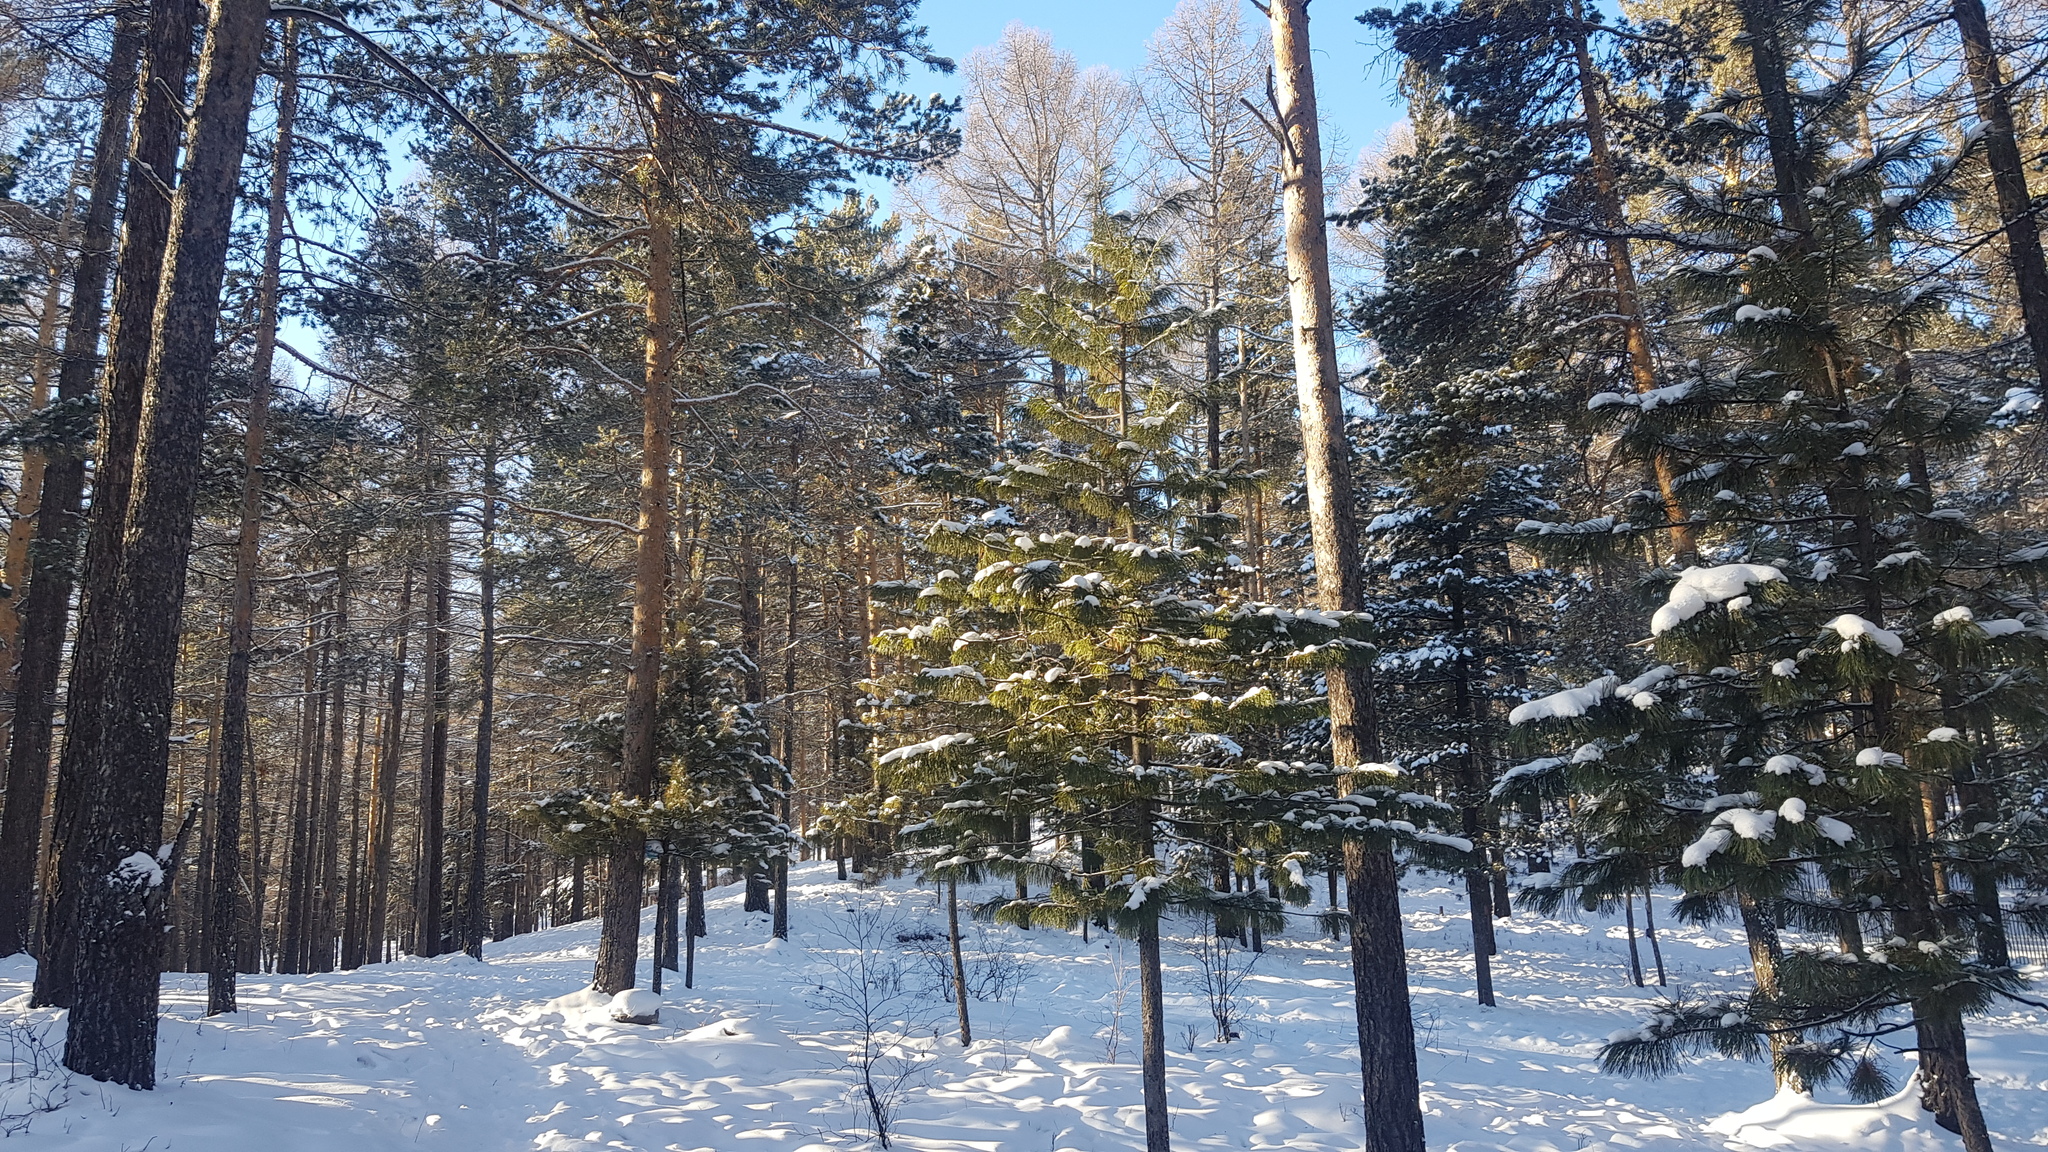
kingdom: Plantae
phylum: Tracheophyta
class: Pinopsida
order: Pinales
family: Pinaceae
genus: Pinus
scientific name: Pinus sibirica
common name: Siberian pine
